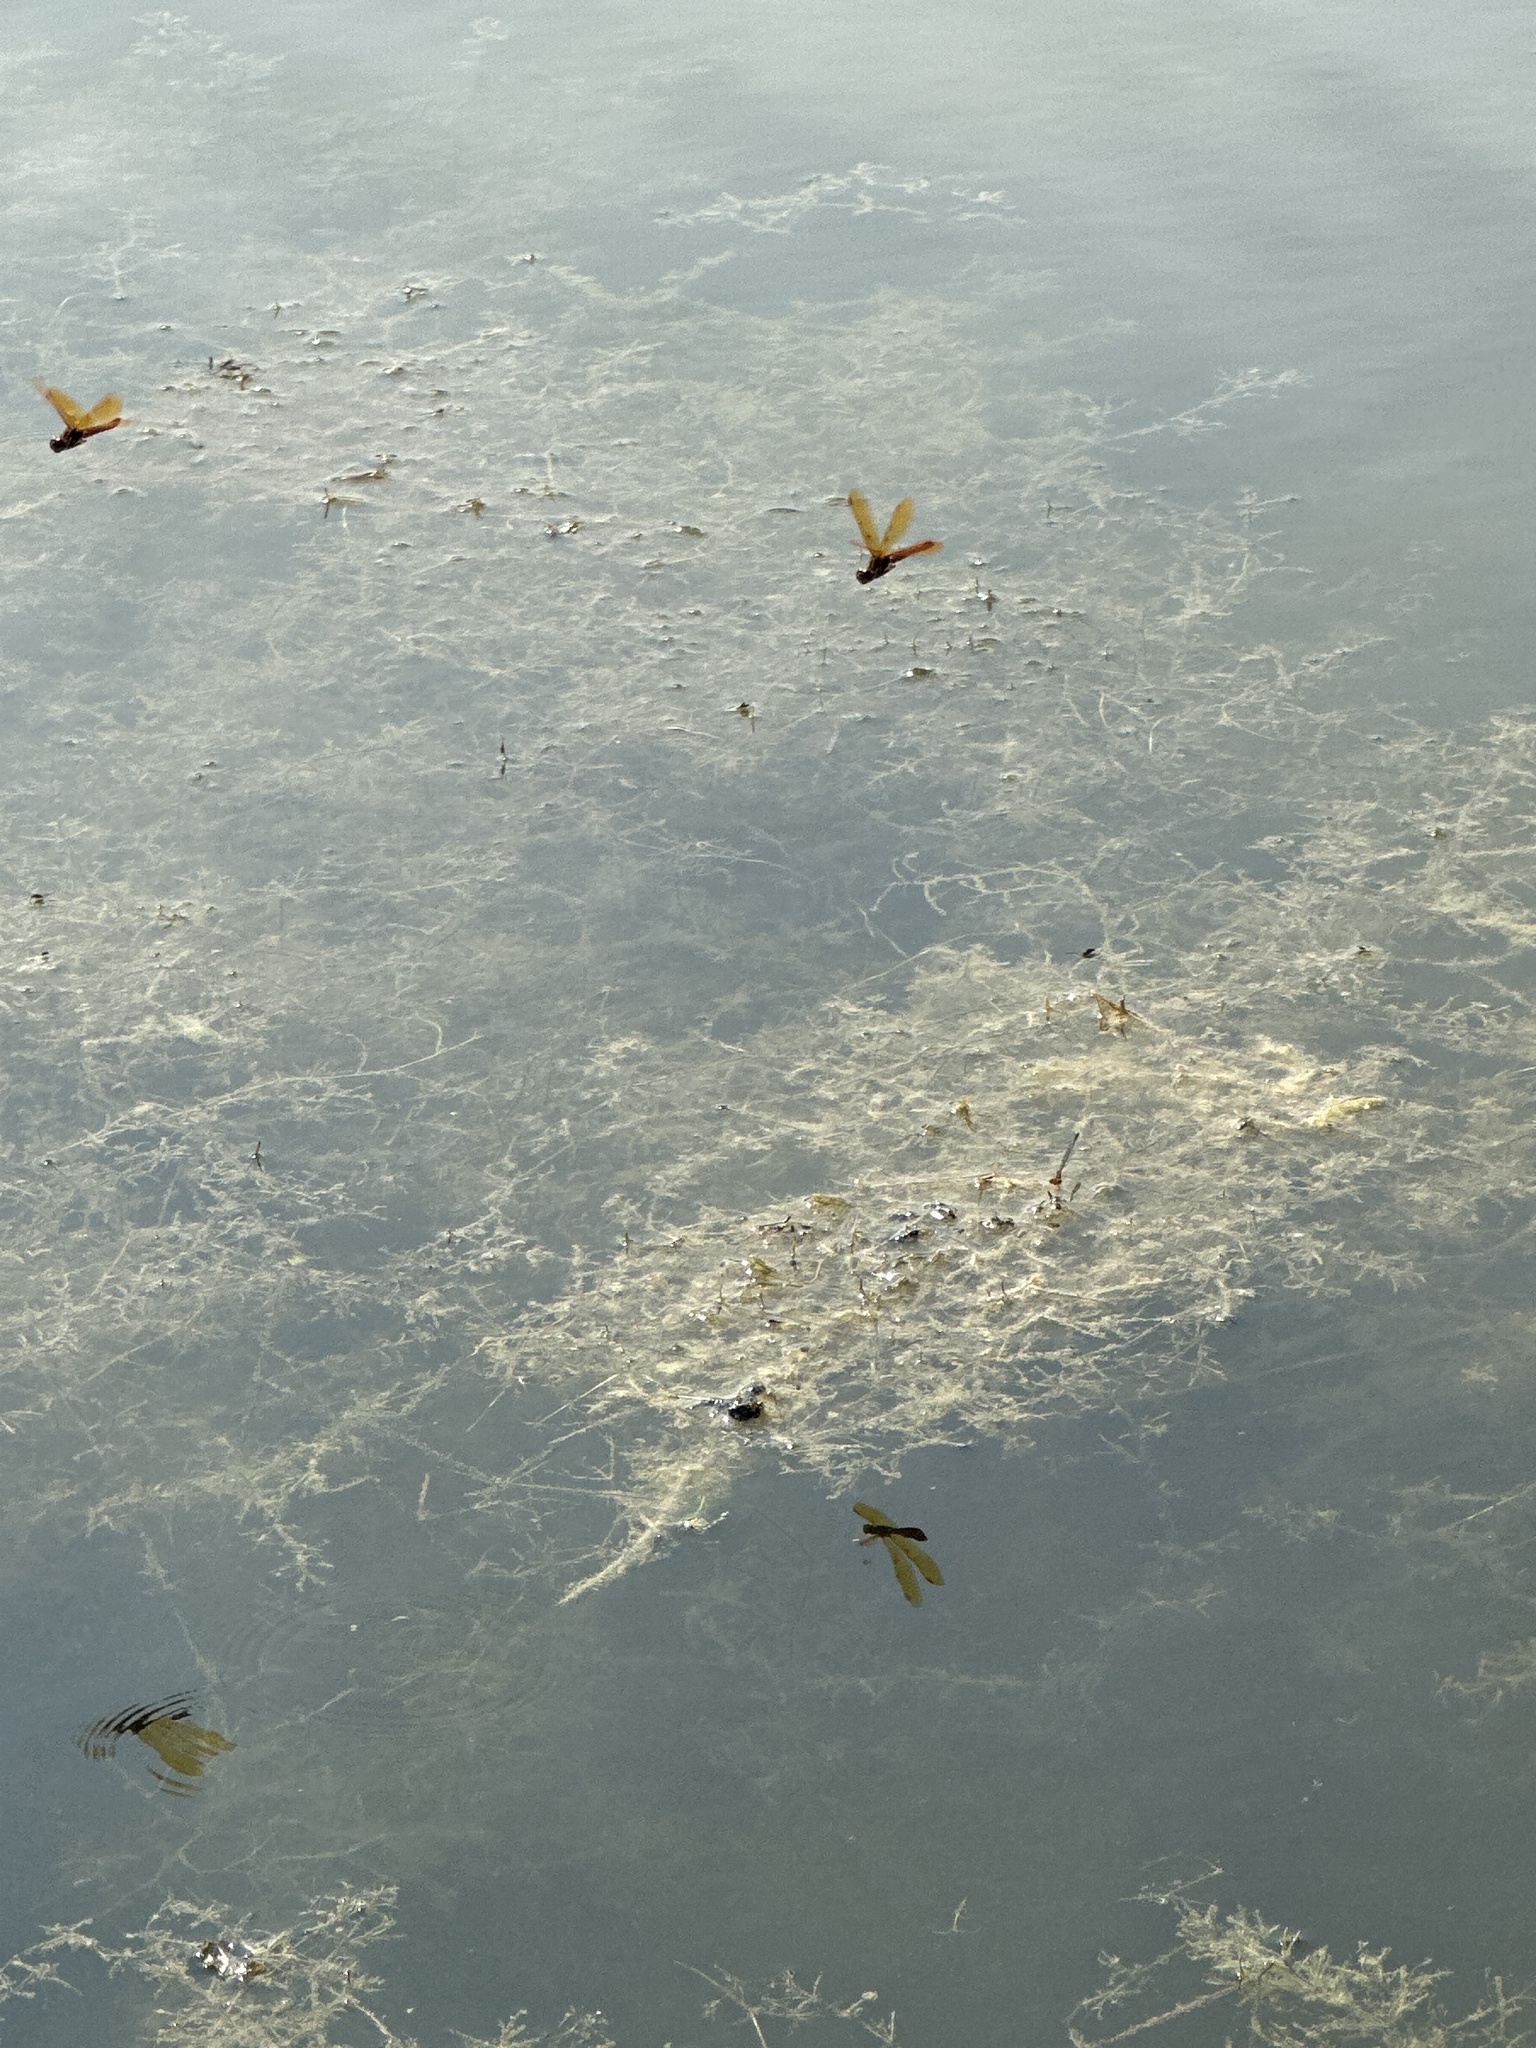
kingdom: Animalia
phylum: Arthropoda
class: Insecta
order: Odonata
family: Libellulidae
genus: Perithemis
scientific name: Perithemis tenera
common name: Eastern amberwing
